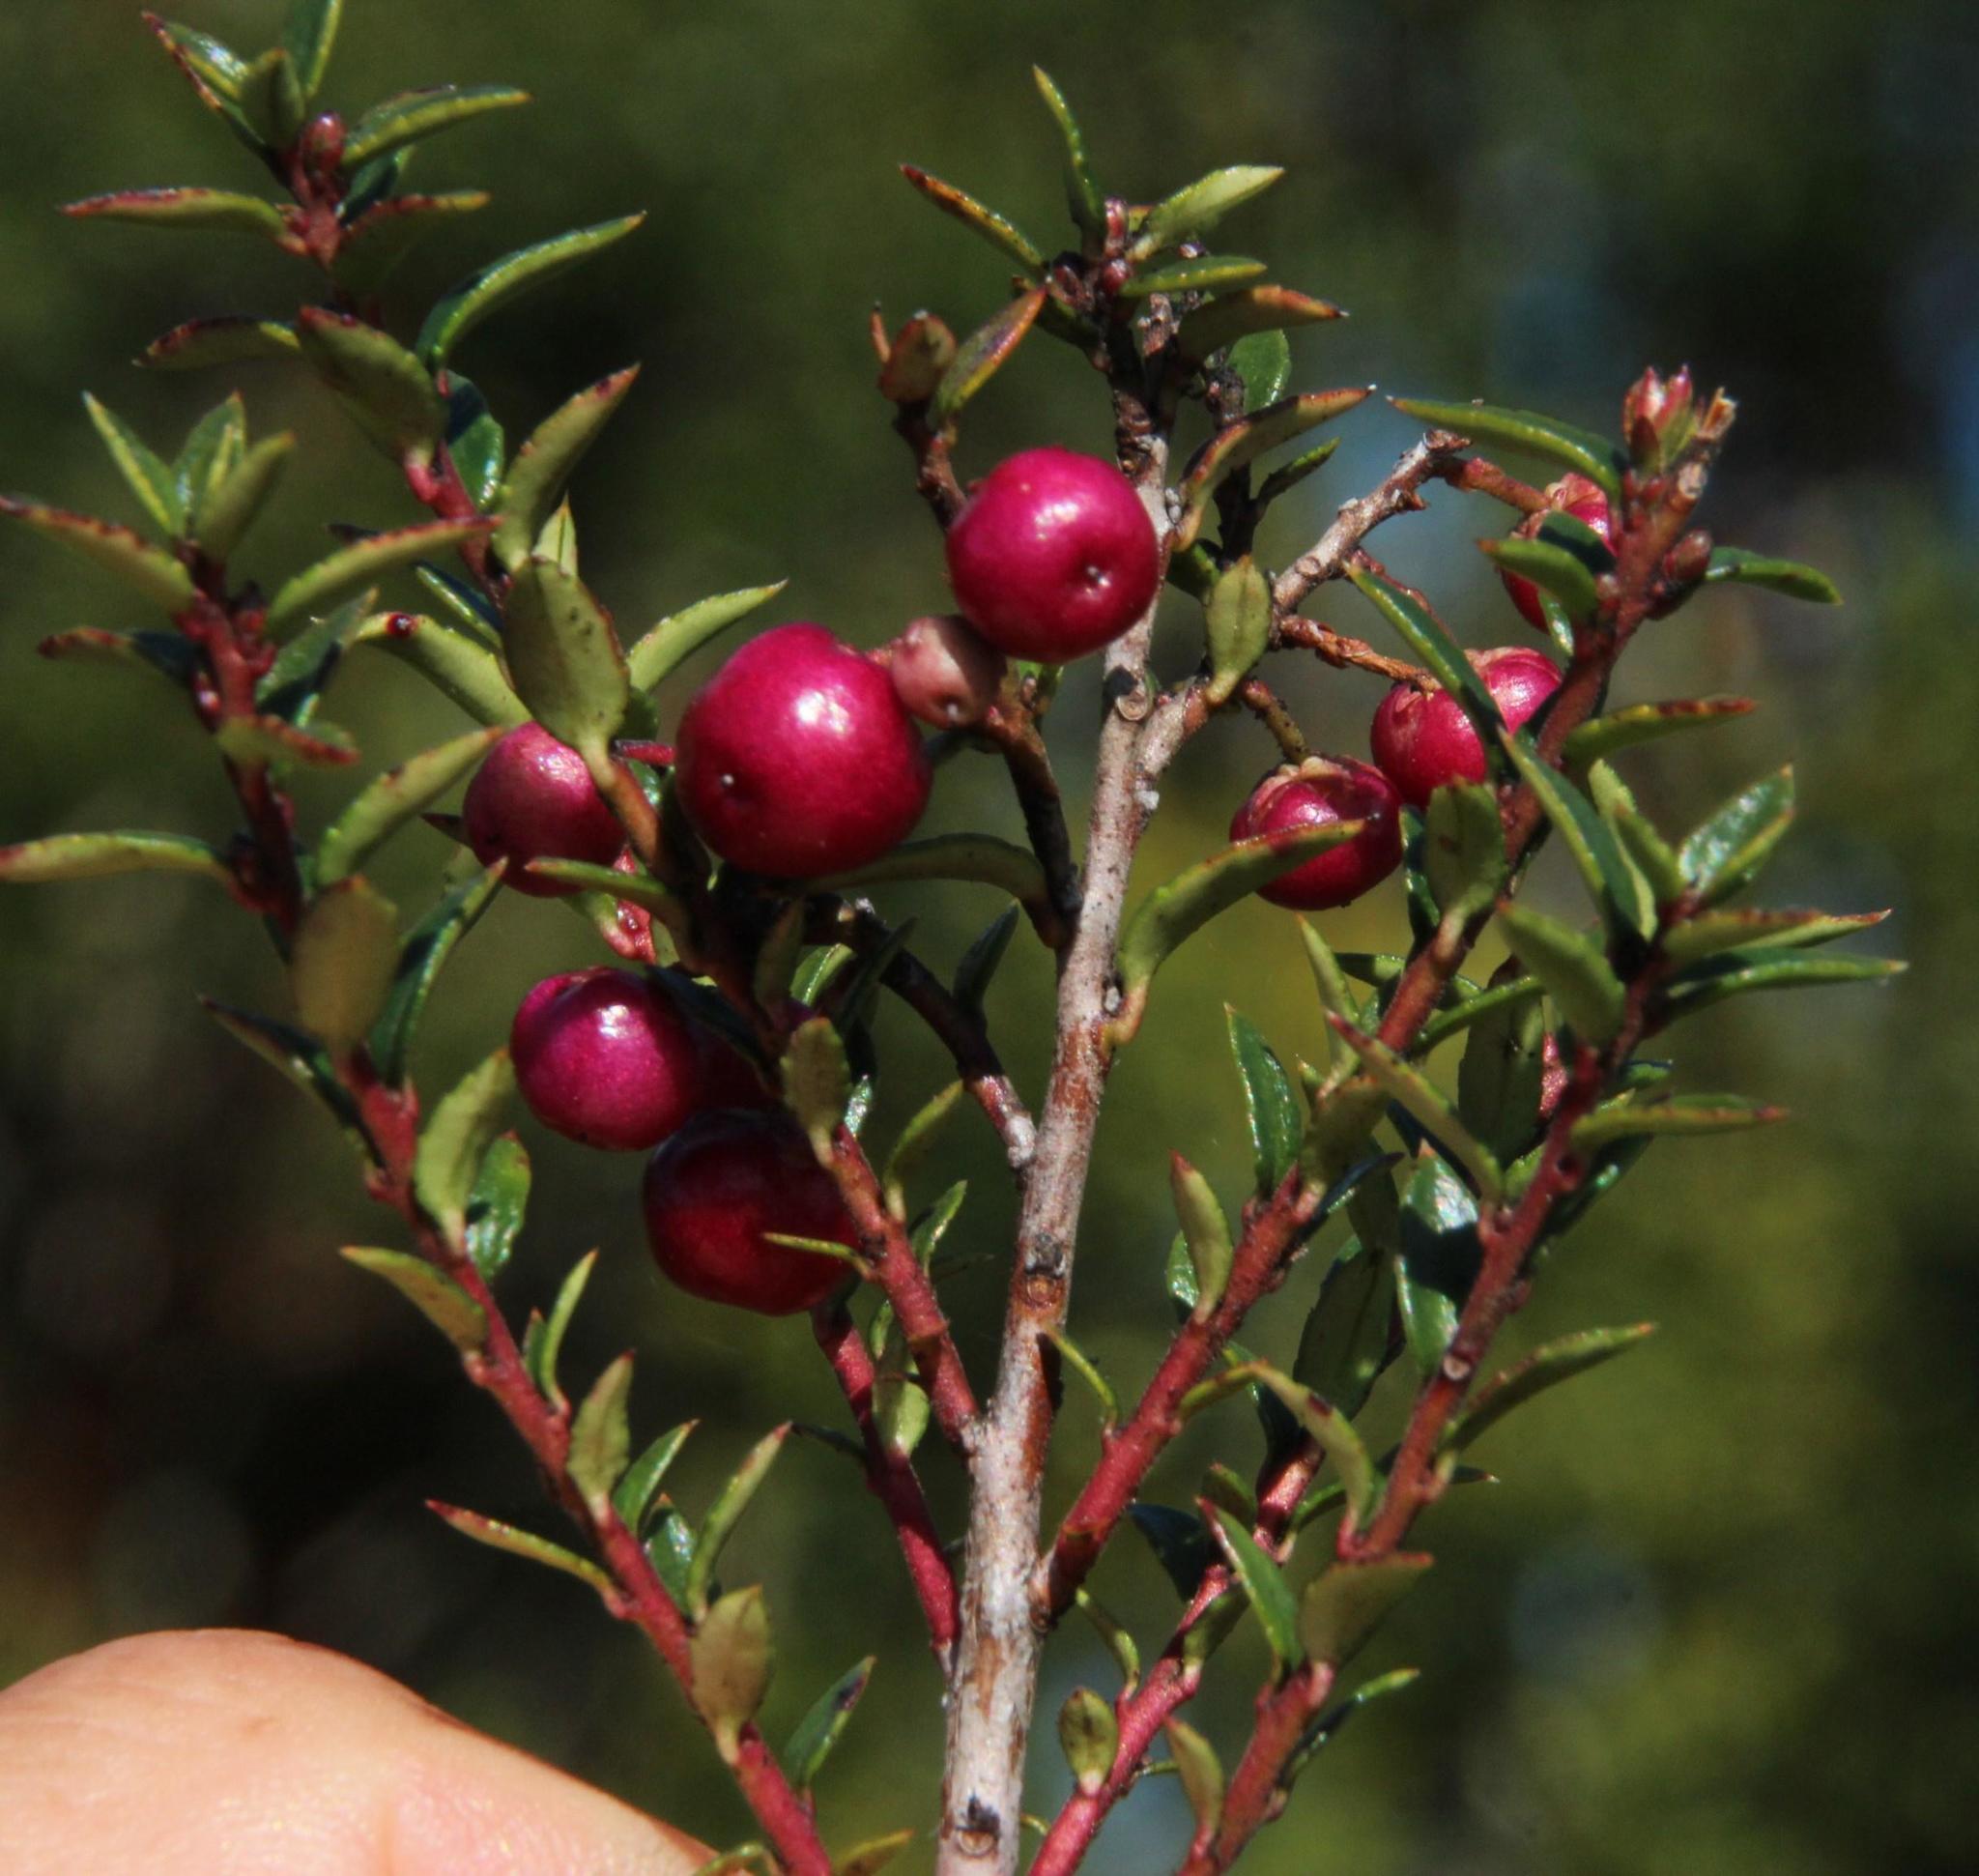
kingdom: Plantae
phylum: Tracheophyta
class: Magnoliopsida
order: Ericales
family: Ericaceae
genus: Gaultheria
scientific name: Gaultheria mucronata
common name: Prickly heath
